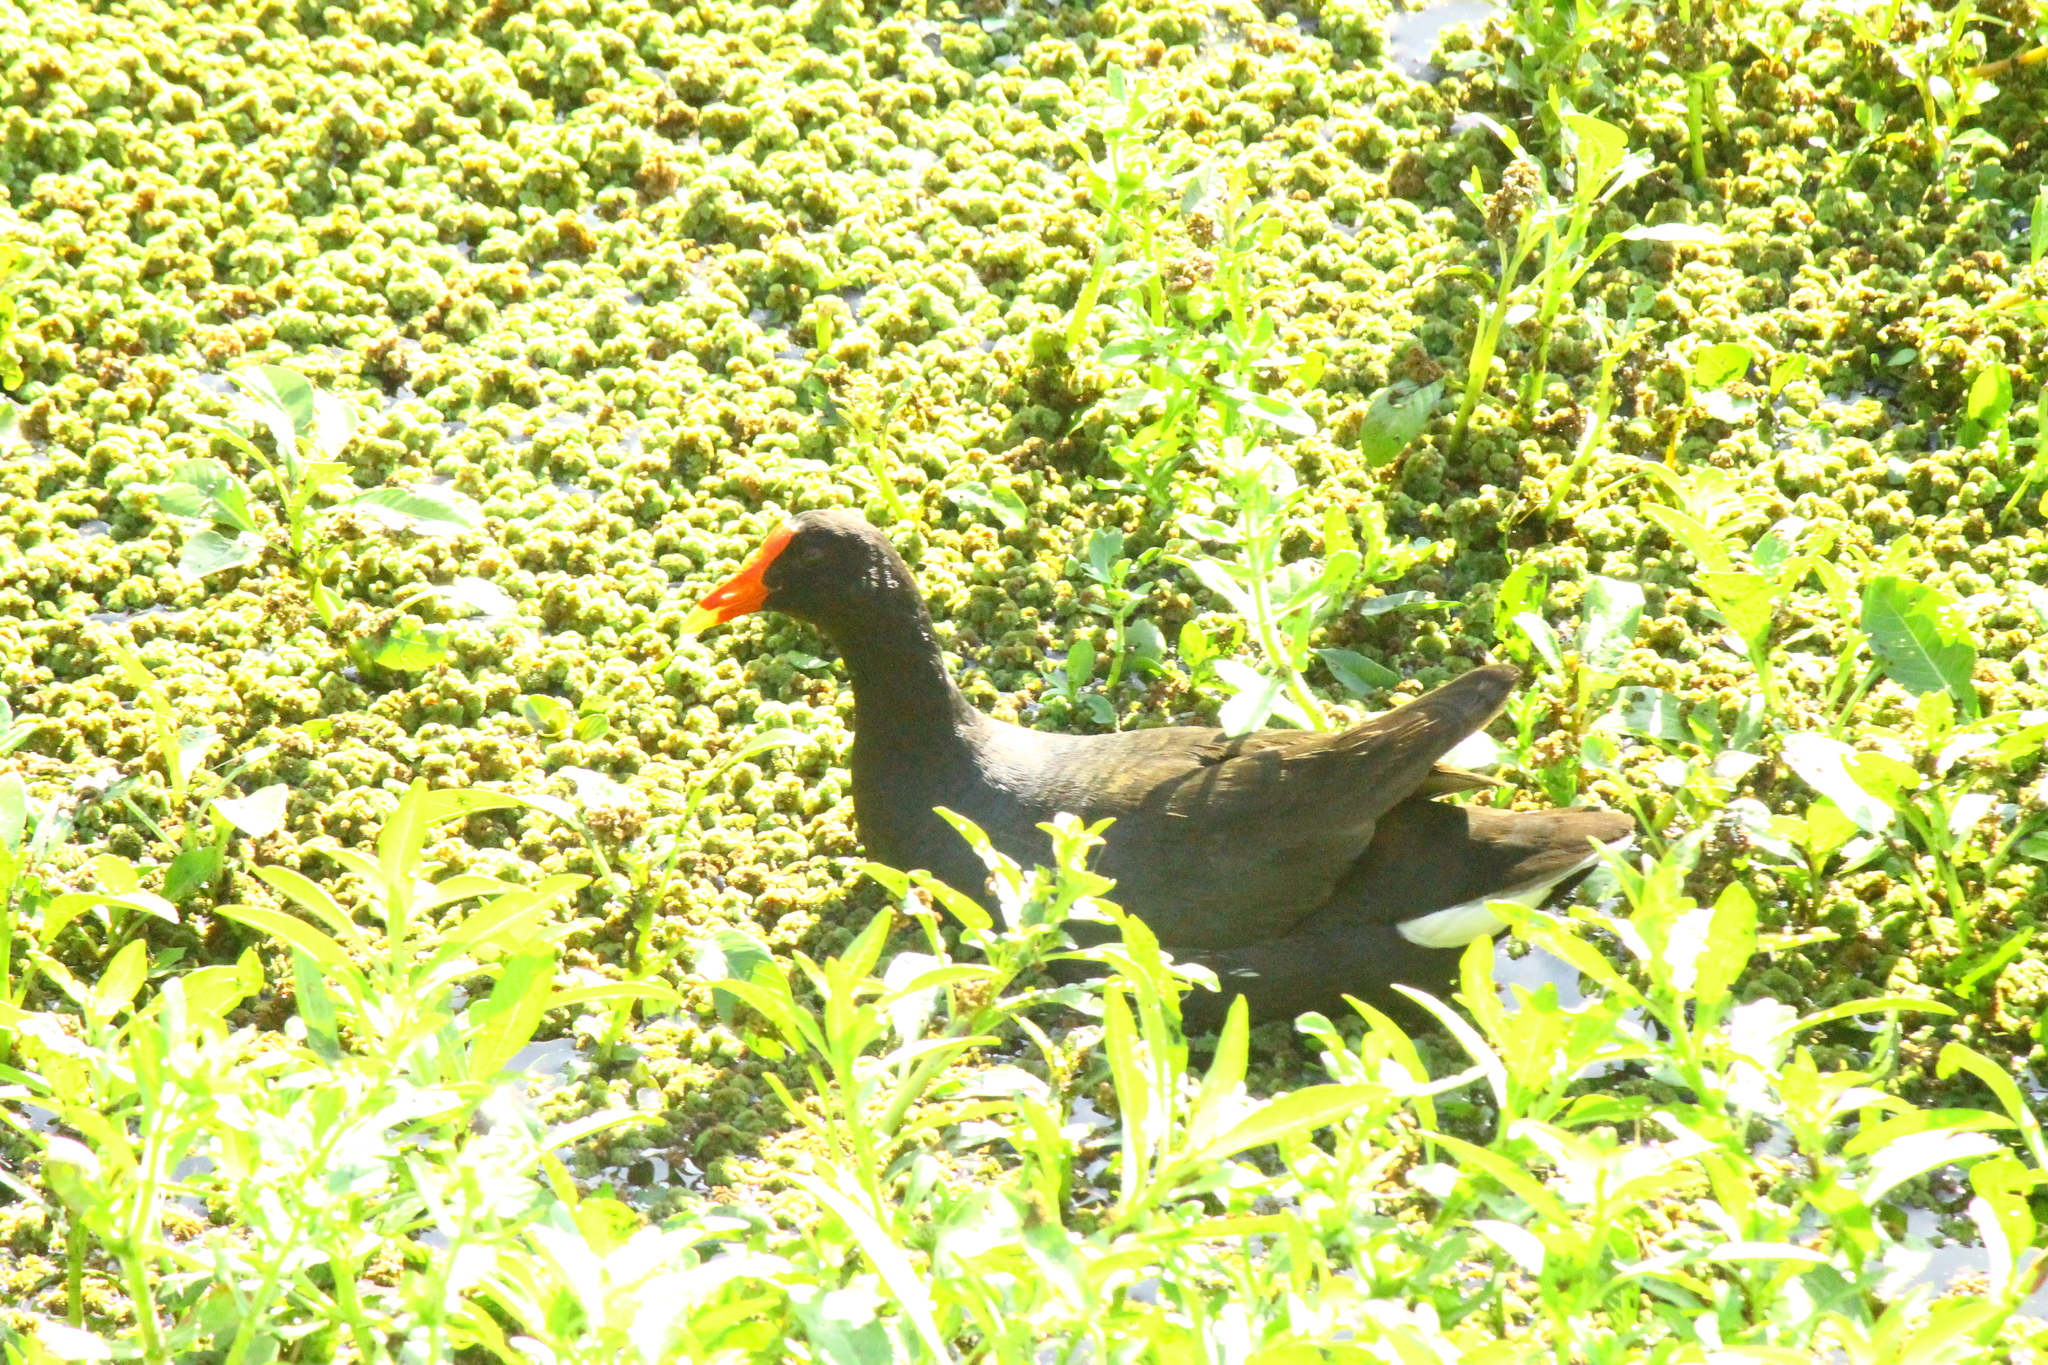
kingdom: Animalia
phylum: Chordata
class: Aves
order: Gruiformes
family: Rallidae
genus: Gallinula
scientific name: Gallinula chloropus
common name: Common moorhen
